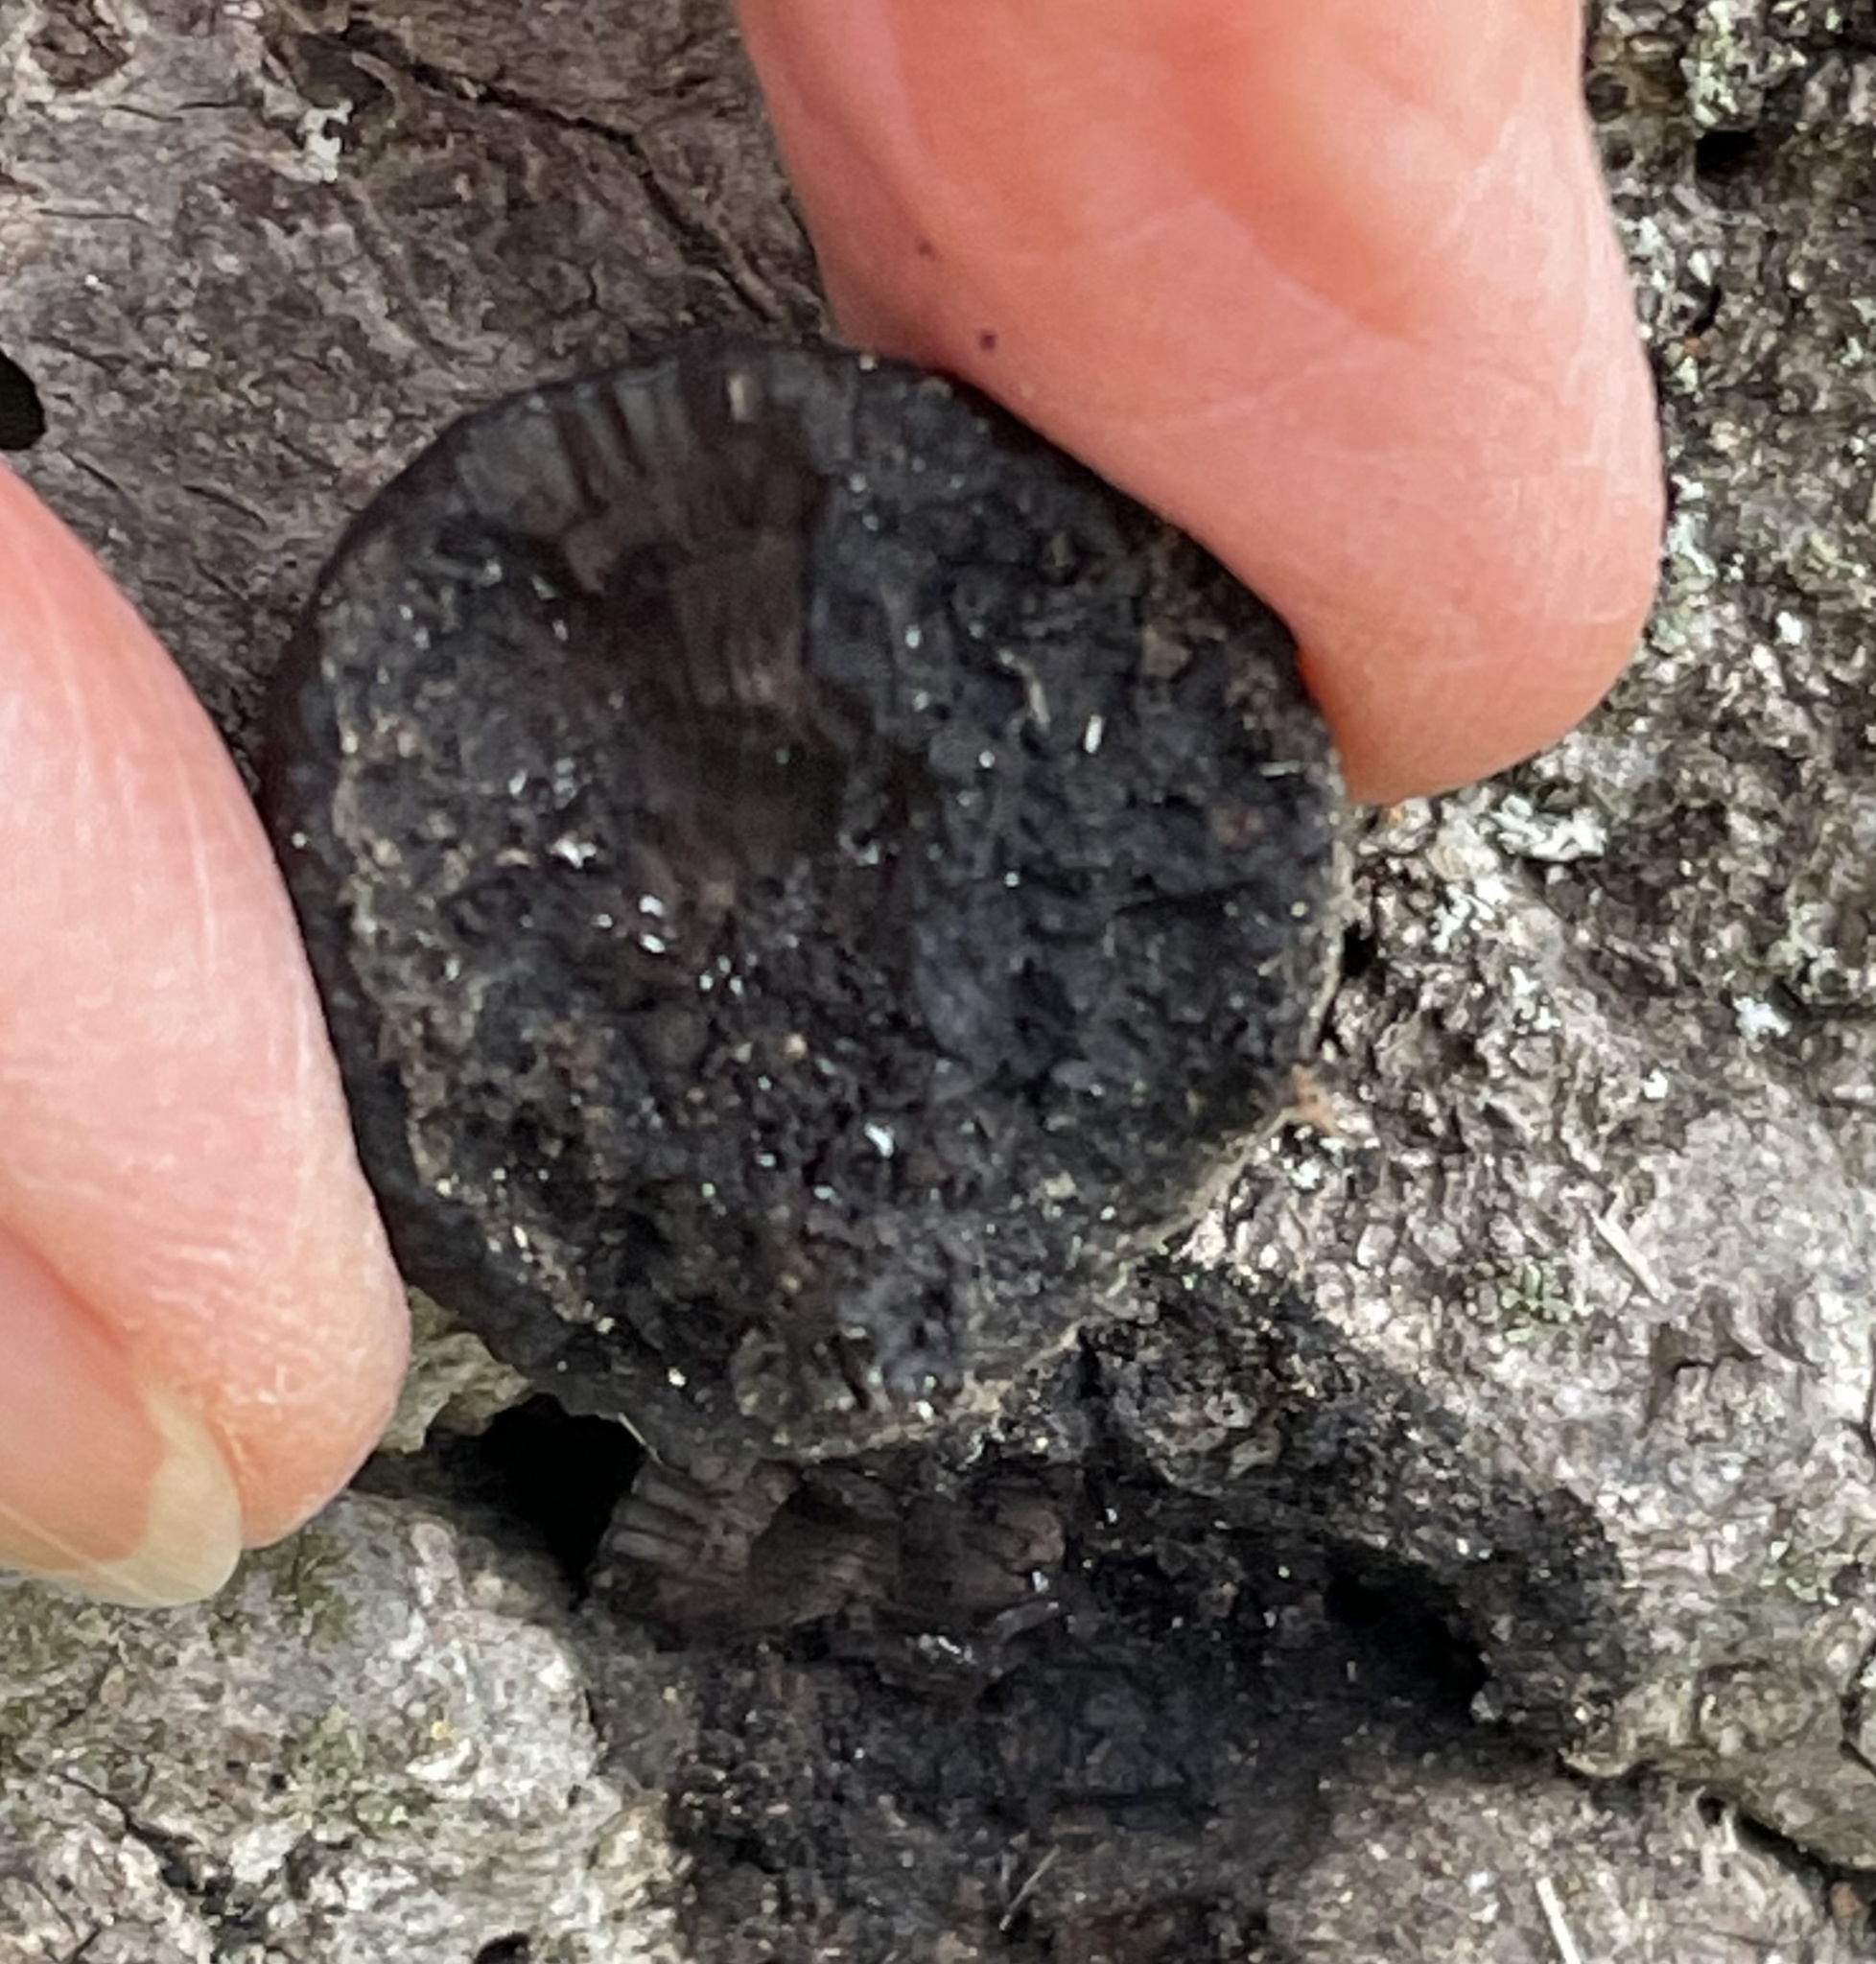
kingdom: Fungi
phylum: Ascomycota
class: Sordariomycetes
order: Xylariales
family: Hypoxylaceae
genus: Annulohypoxylon
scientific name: Annulohypoxylon thouarsianum
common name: Cramp balls
